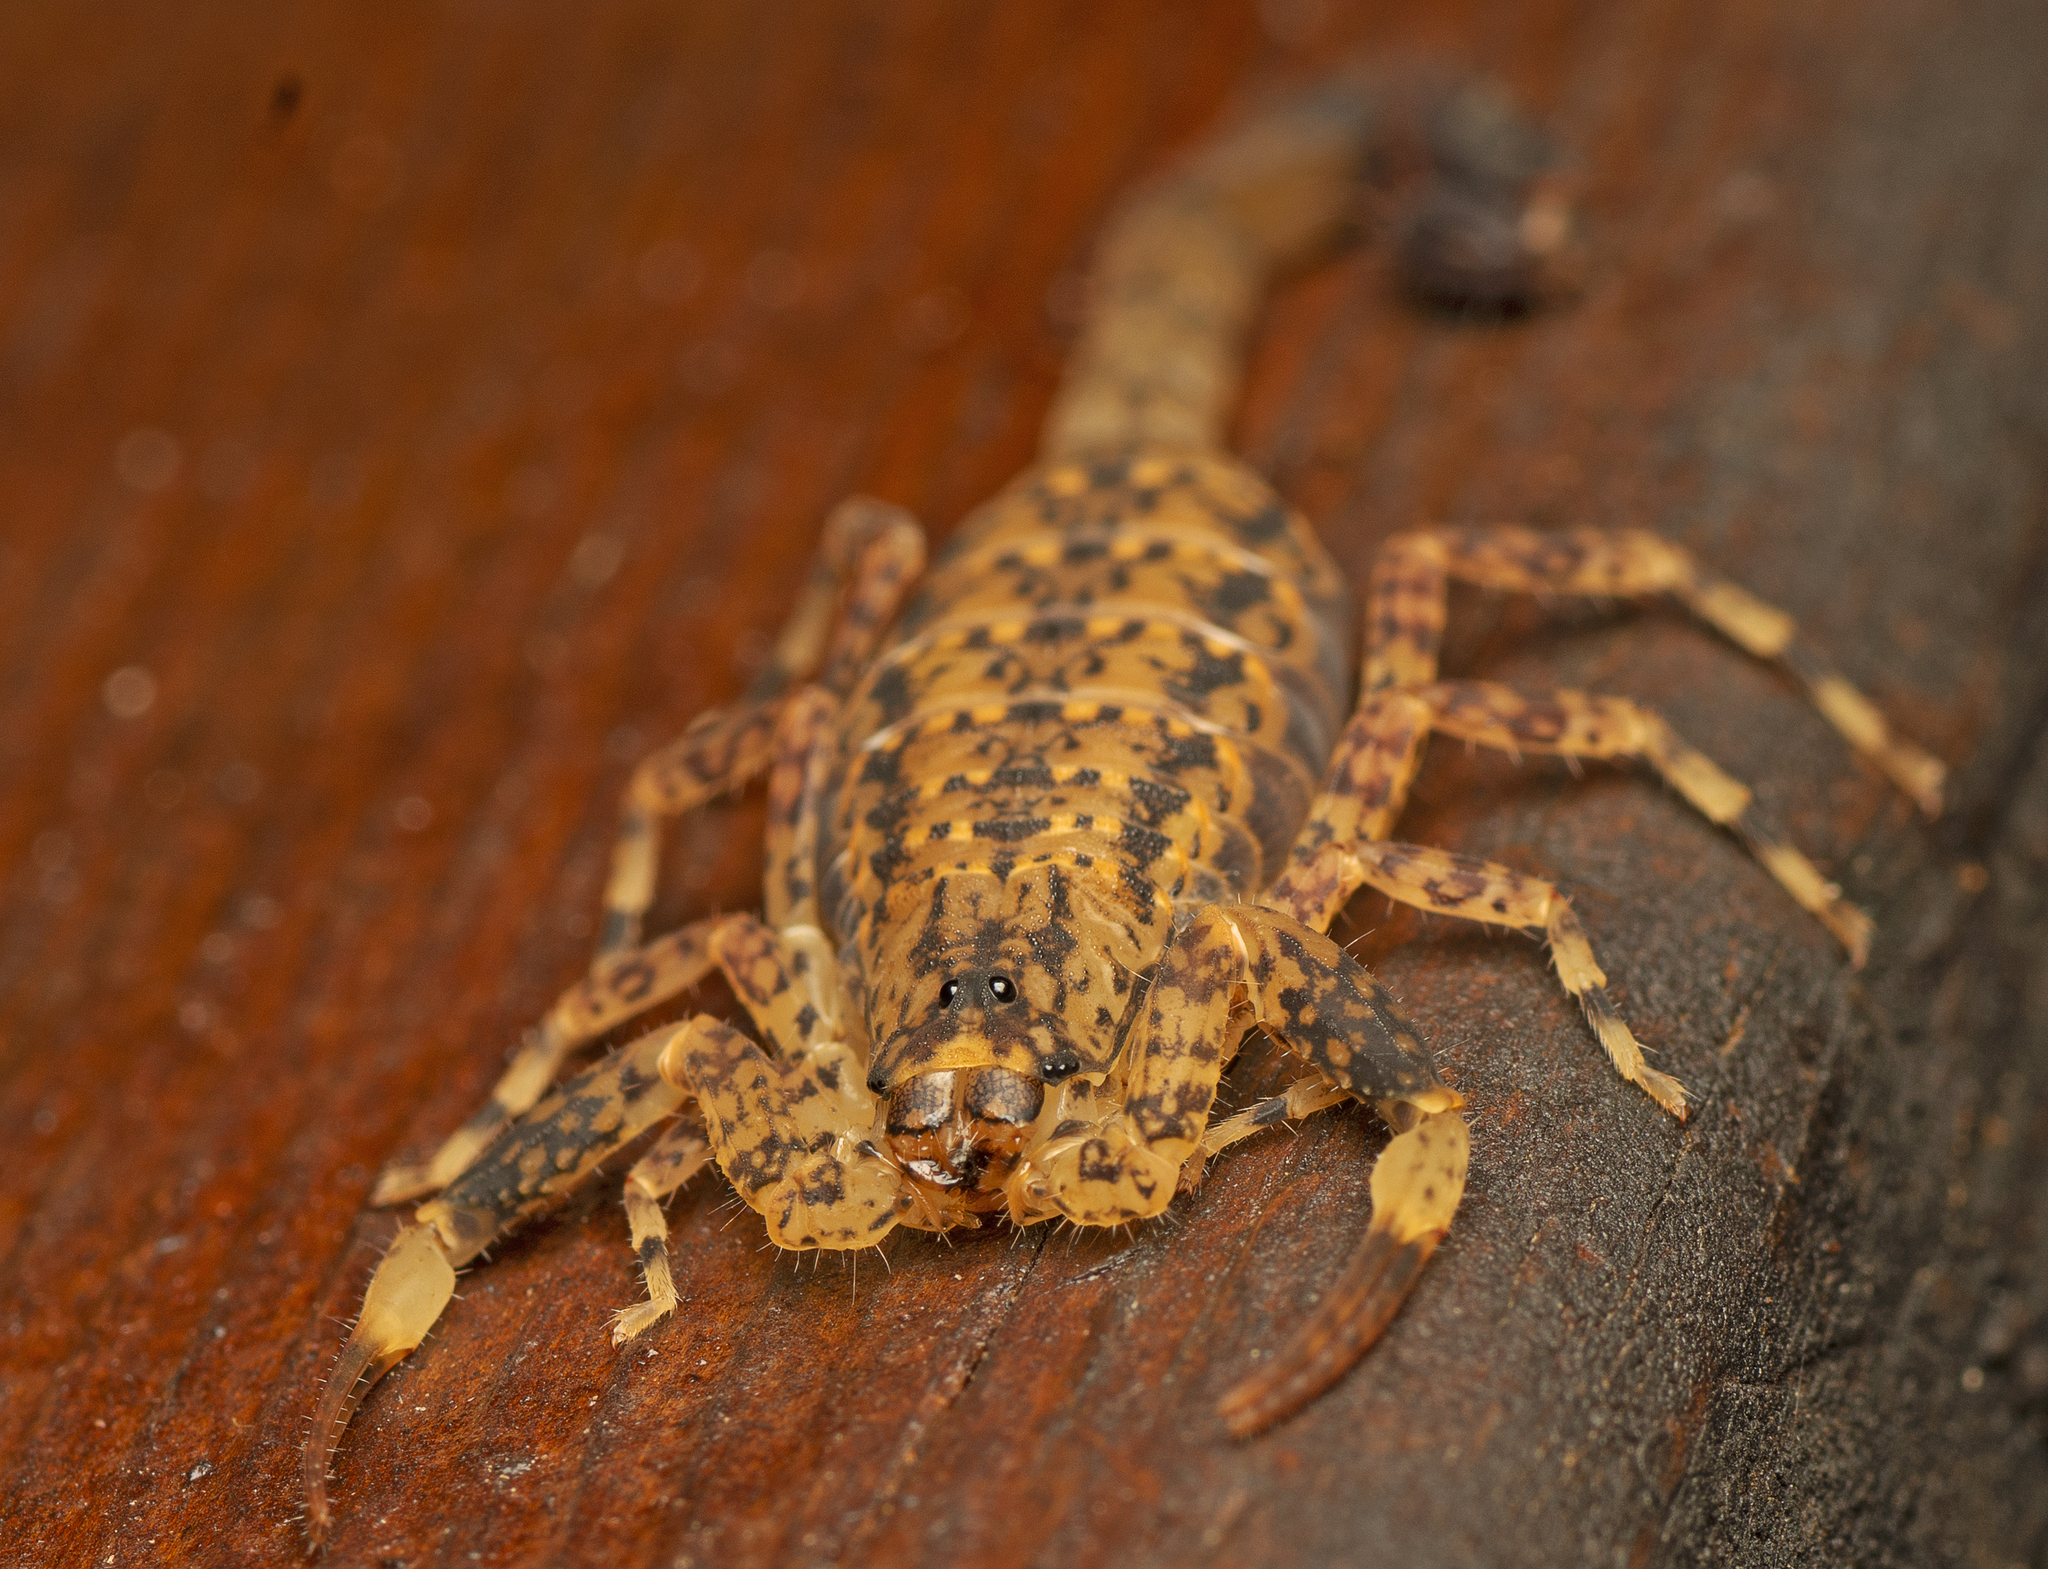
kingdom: Animalia
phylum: Arthropoda
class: Arachnida
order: Scorpiones
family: Buthidae
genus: Lychas
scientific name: Lychas variatus
